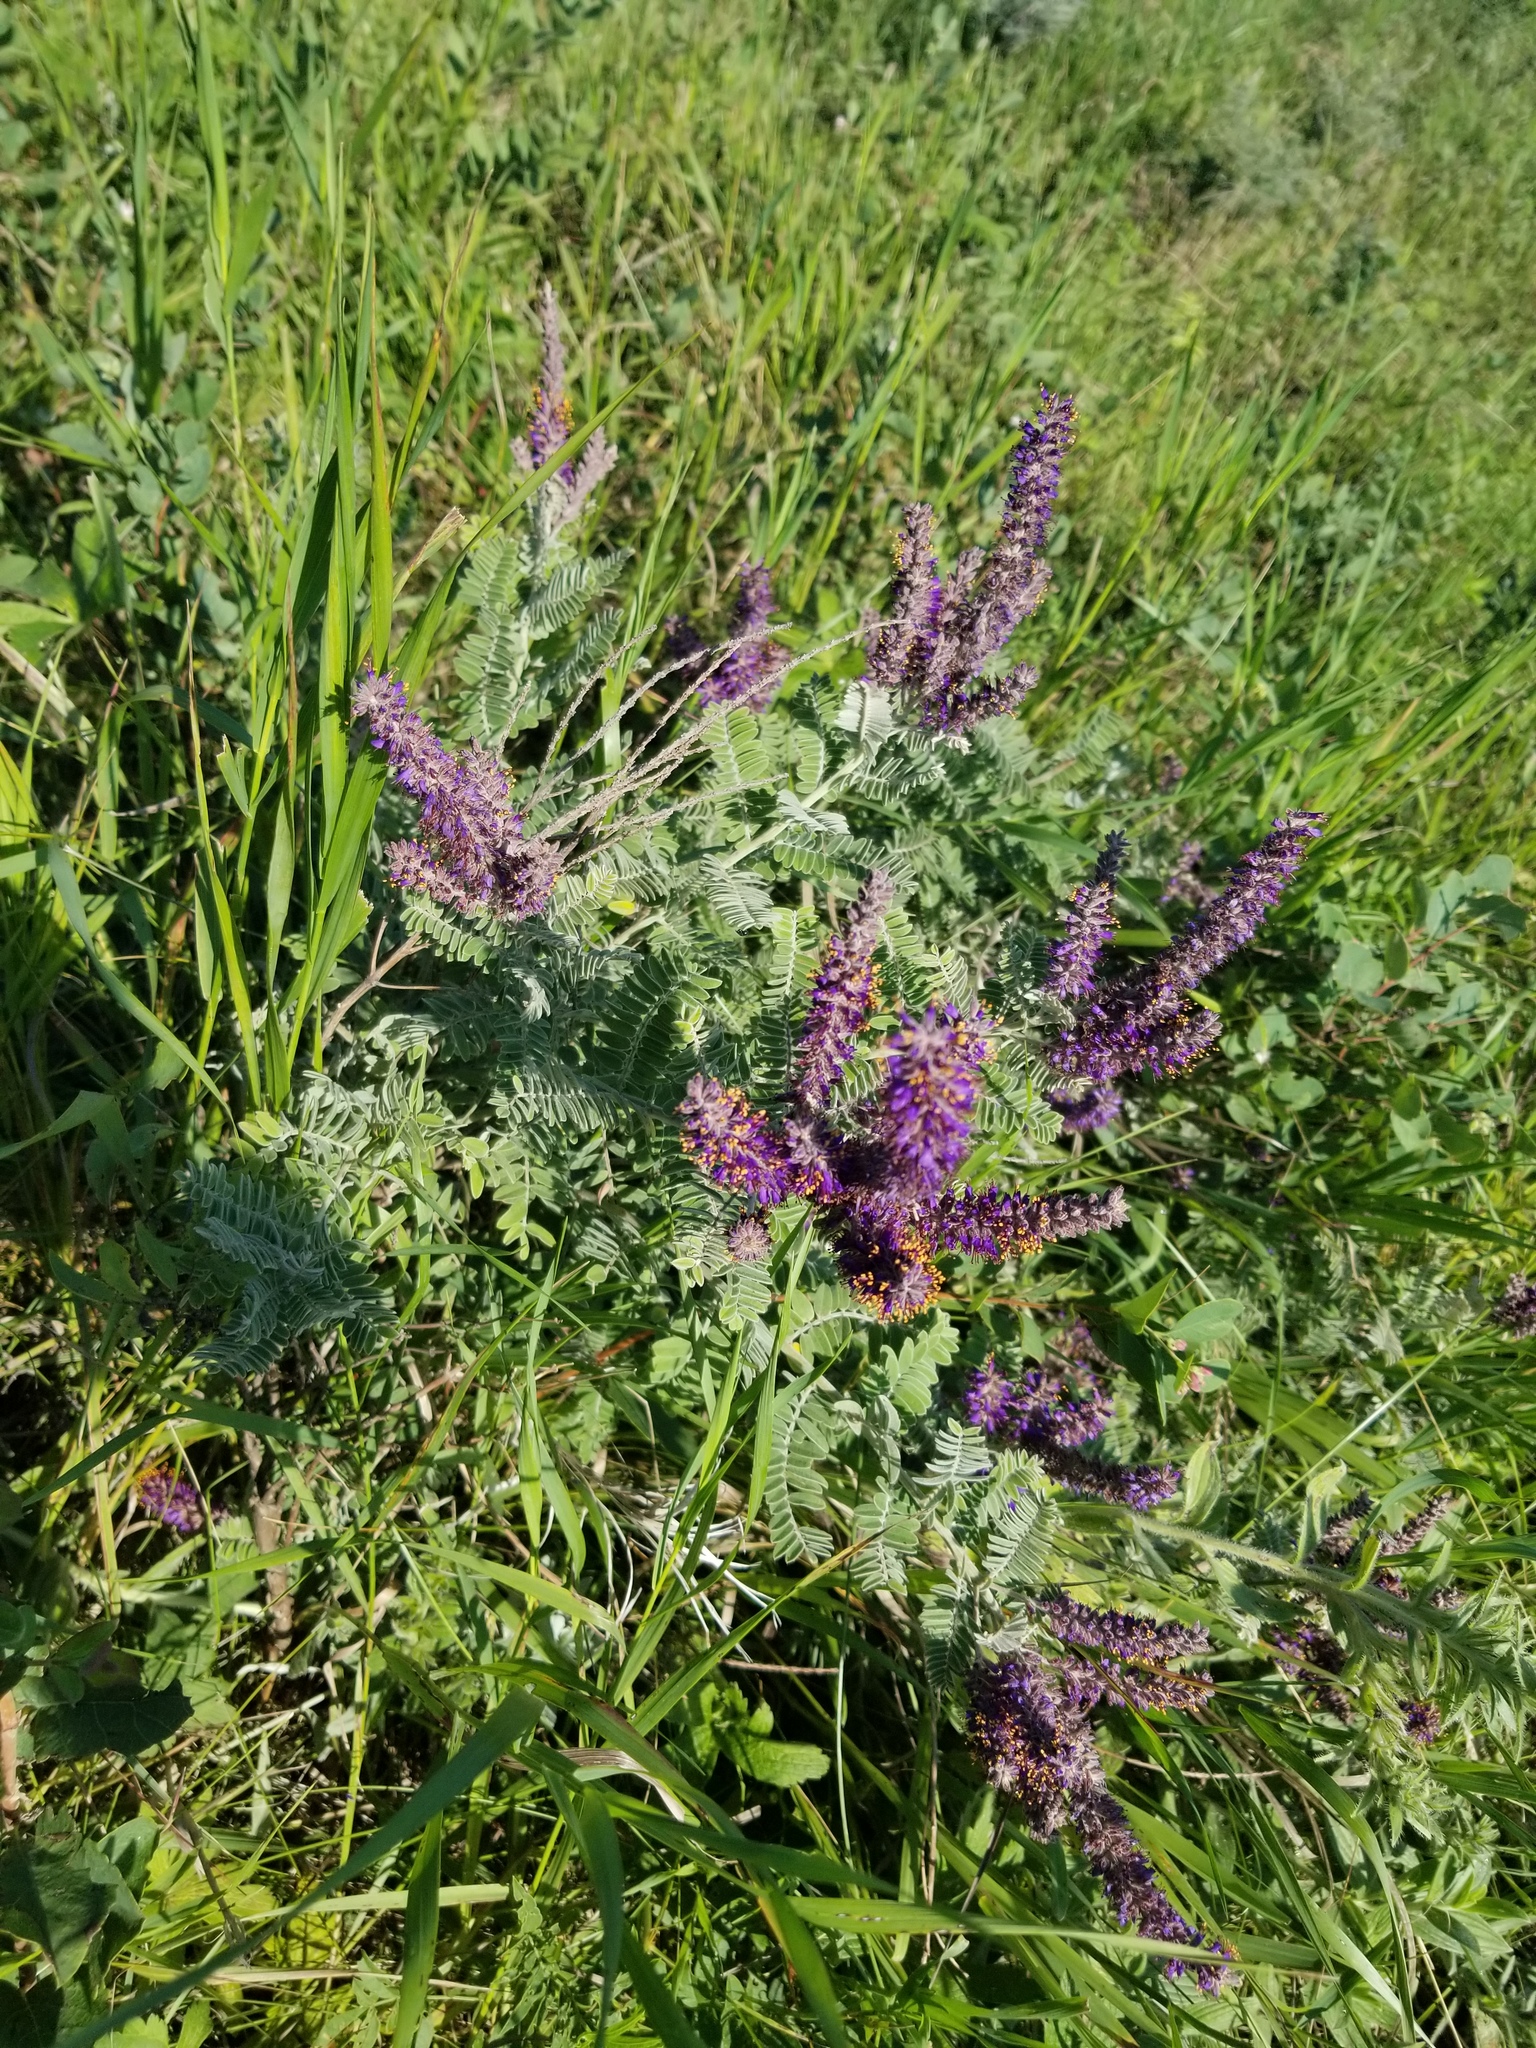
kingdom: Plantae
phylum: Tracheophyta
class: Magnoliopsida
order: Fabales
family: Fabaceae
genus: Amorpha
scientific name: Amorpha canescens
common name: Leadplant
